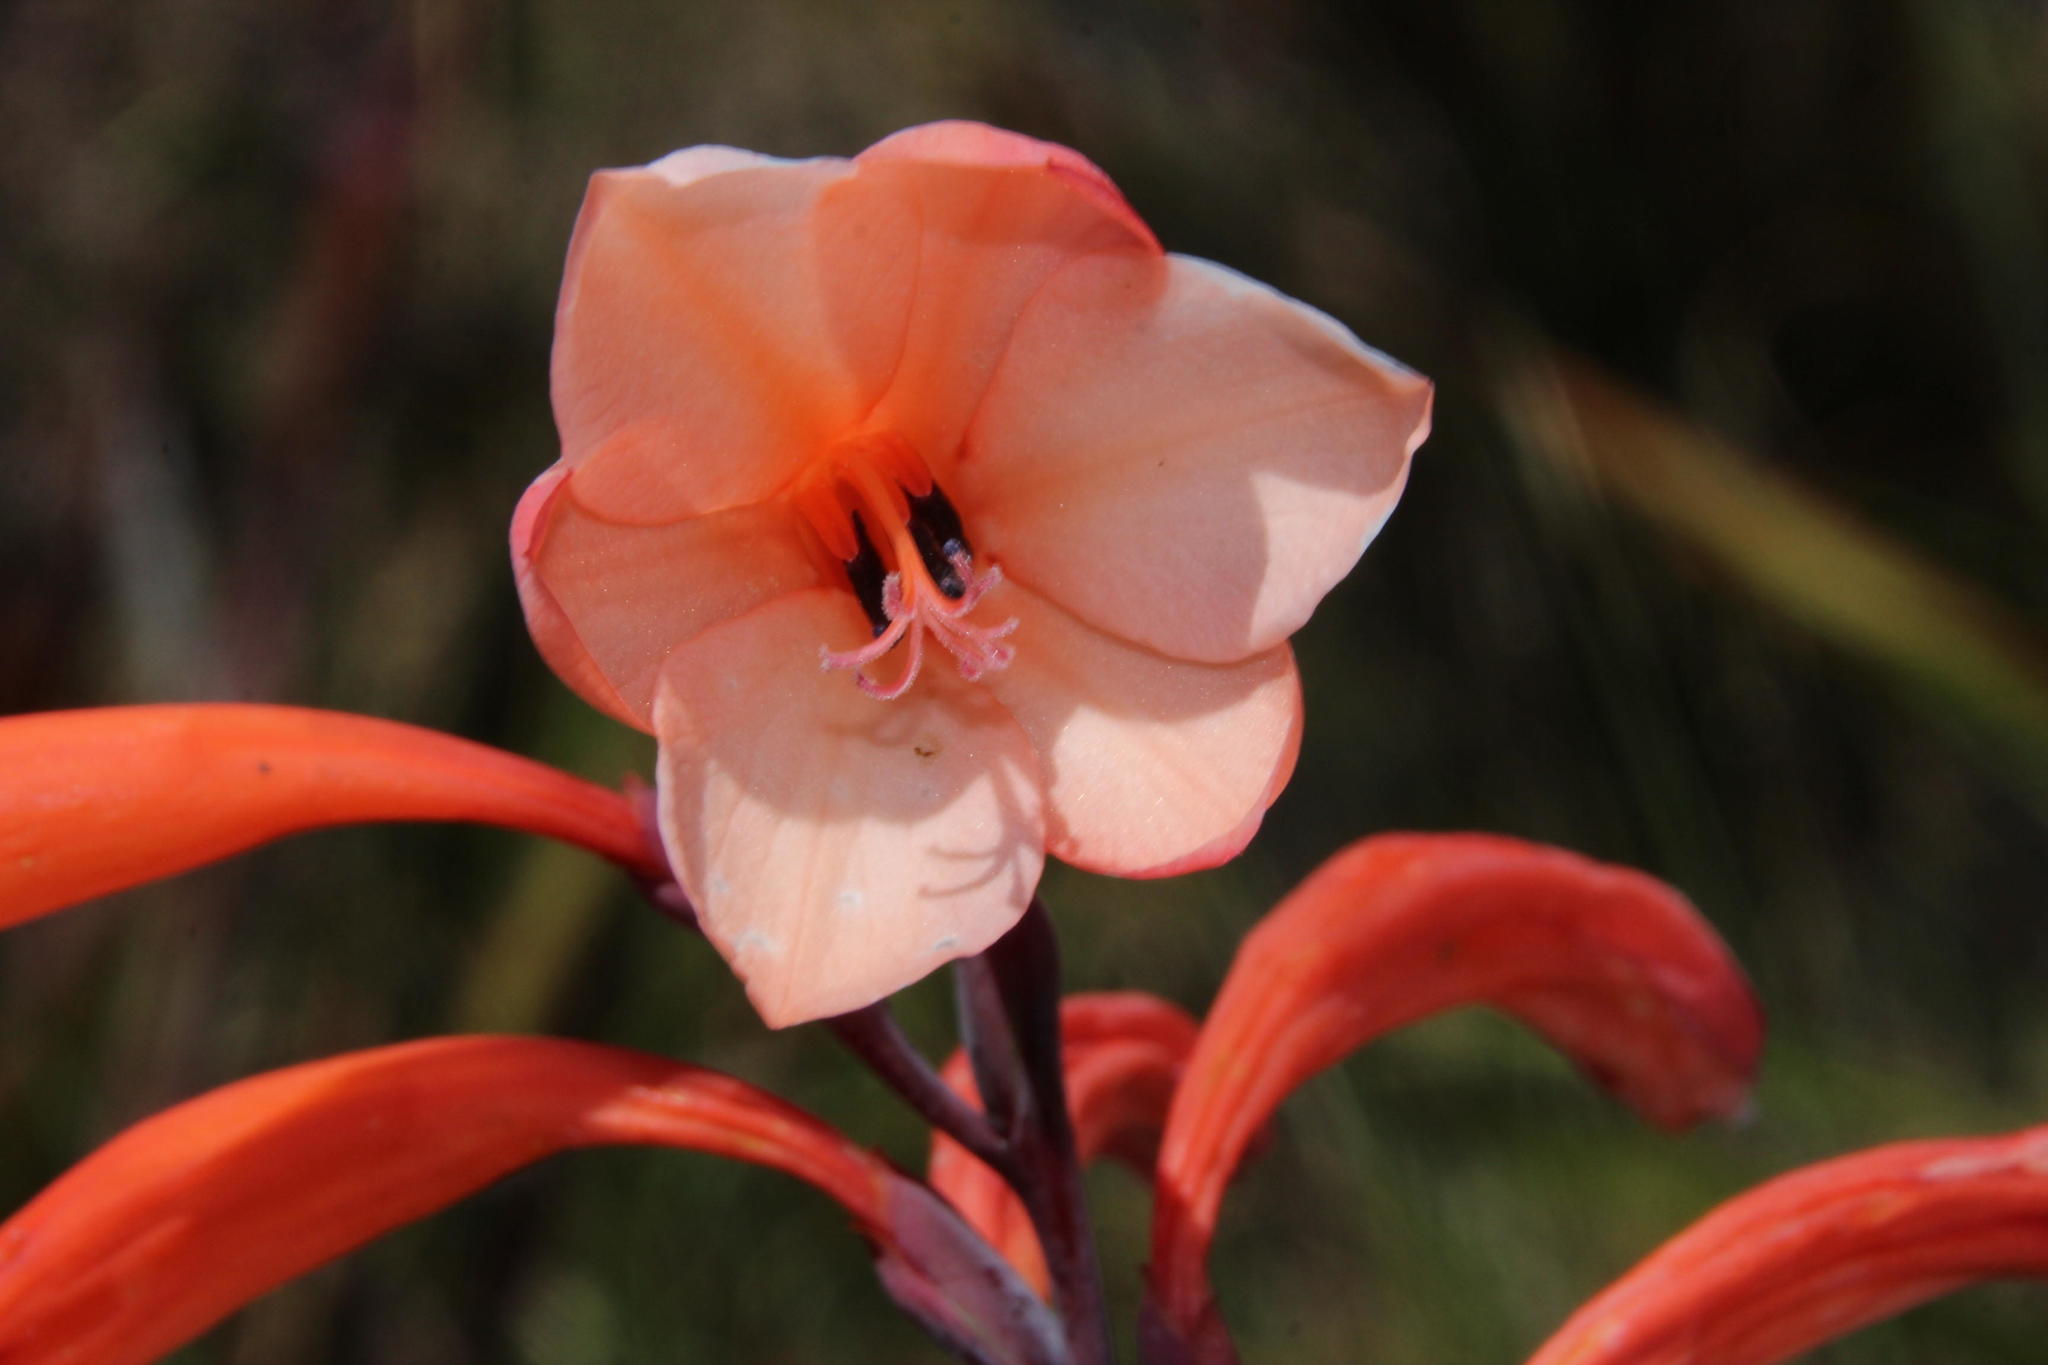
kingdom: Plantae
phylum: Tracheophyta
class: Liliopsida
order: Asparagales
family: Iridaceae
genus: Watsonia
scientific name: Watsonia tabularis
